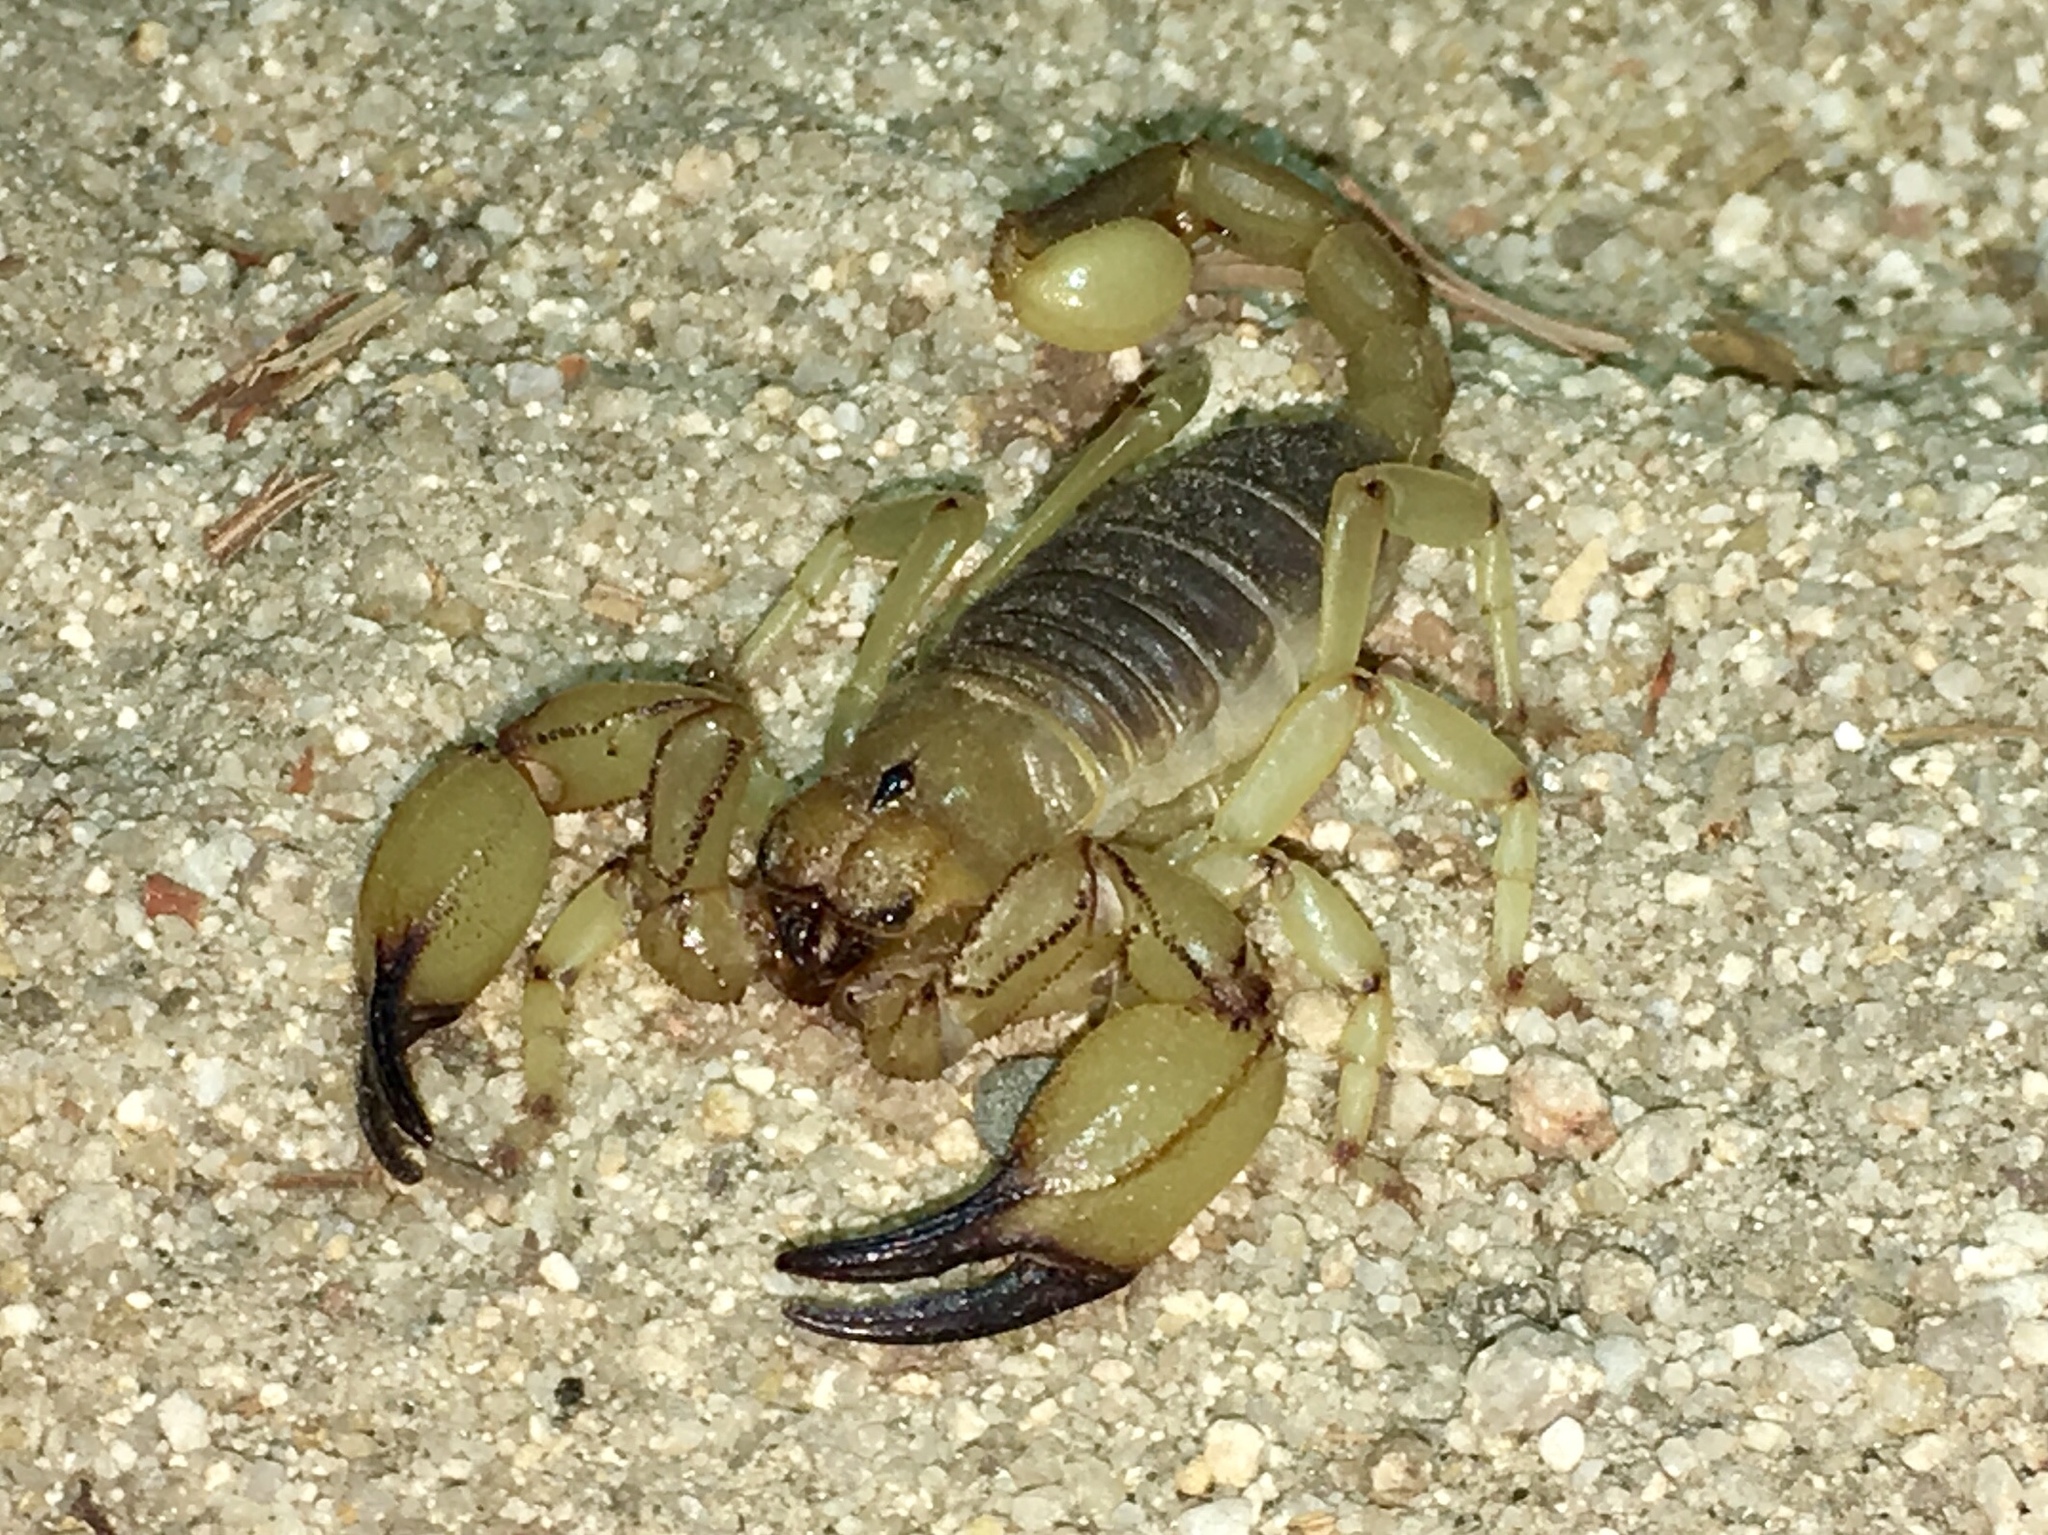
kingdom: Animalia
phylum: Arthropoda
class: Arachnida
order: Scorpiones
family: Chactidae
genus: Anuroctonus
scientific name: Anuroctonus pococki
